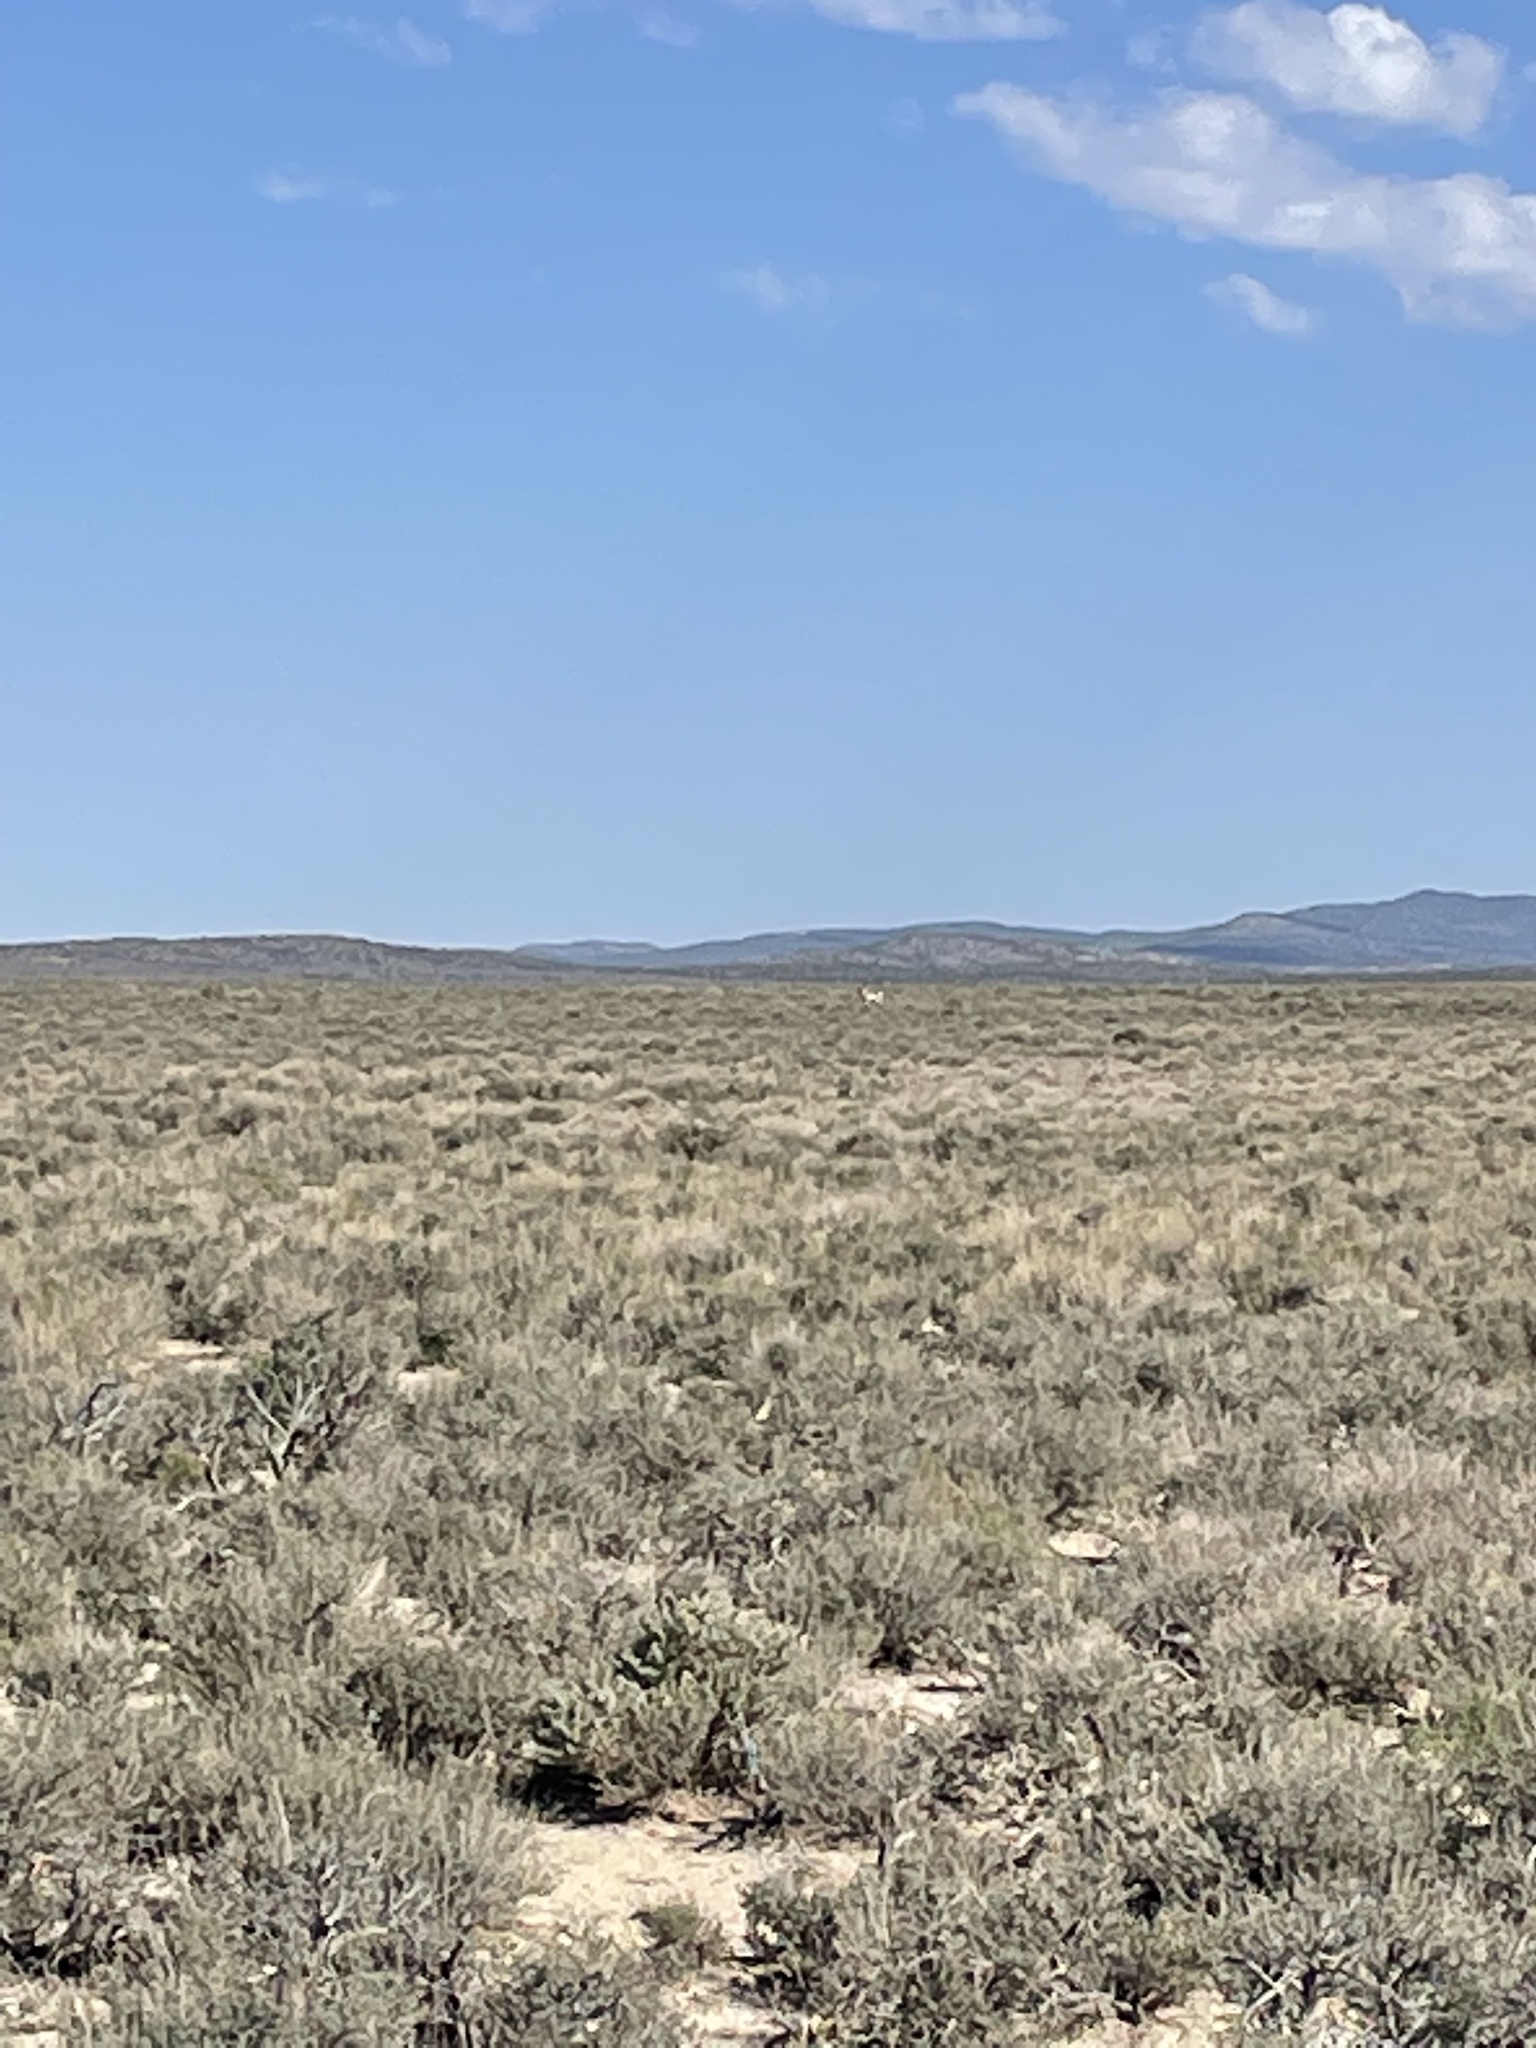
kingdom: Animalia
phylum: Chordata
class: Mammalia
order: Artiodactyla
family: Antilocapridae
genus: Antilocapra
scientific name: Antilocapra americana
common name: Pronghorn
